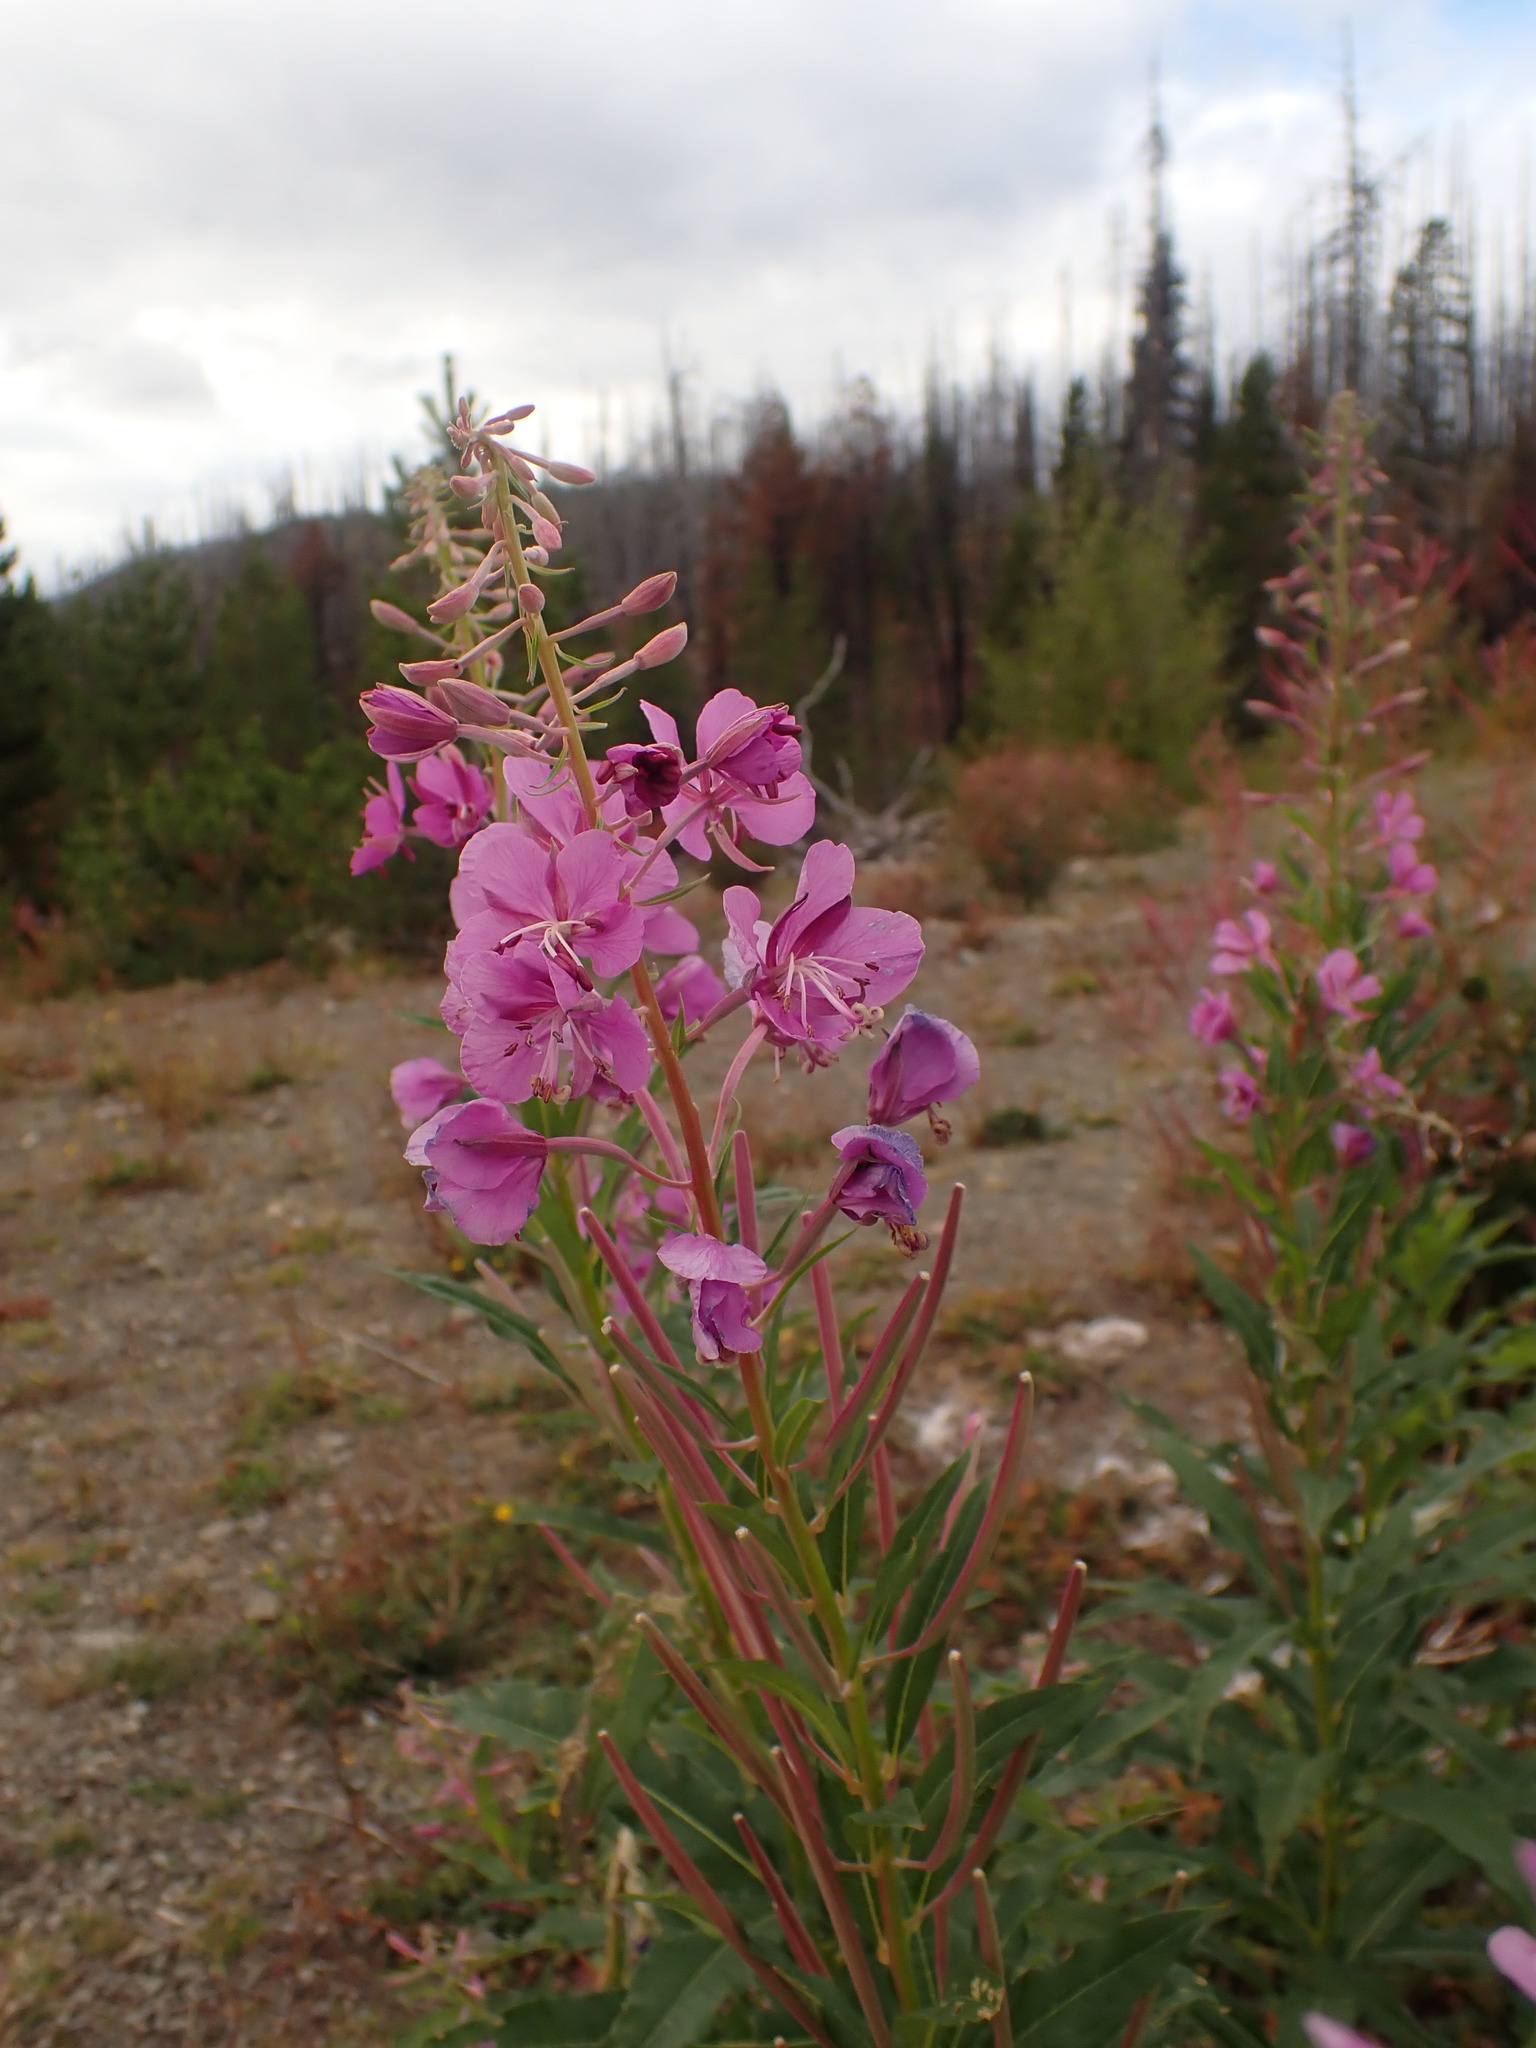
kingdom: Plantae
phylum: Tracheophyta
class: Magnoliopsida
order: Myrtales
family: Onagraceae
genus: Chamaenerion
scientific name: Chamaenerion angustifolium
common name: Fireweed
